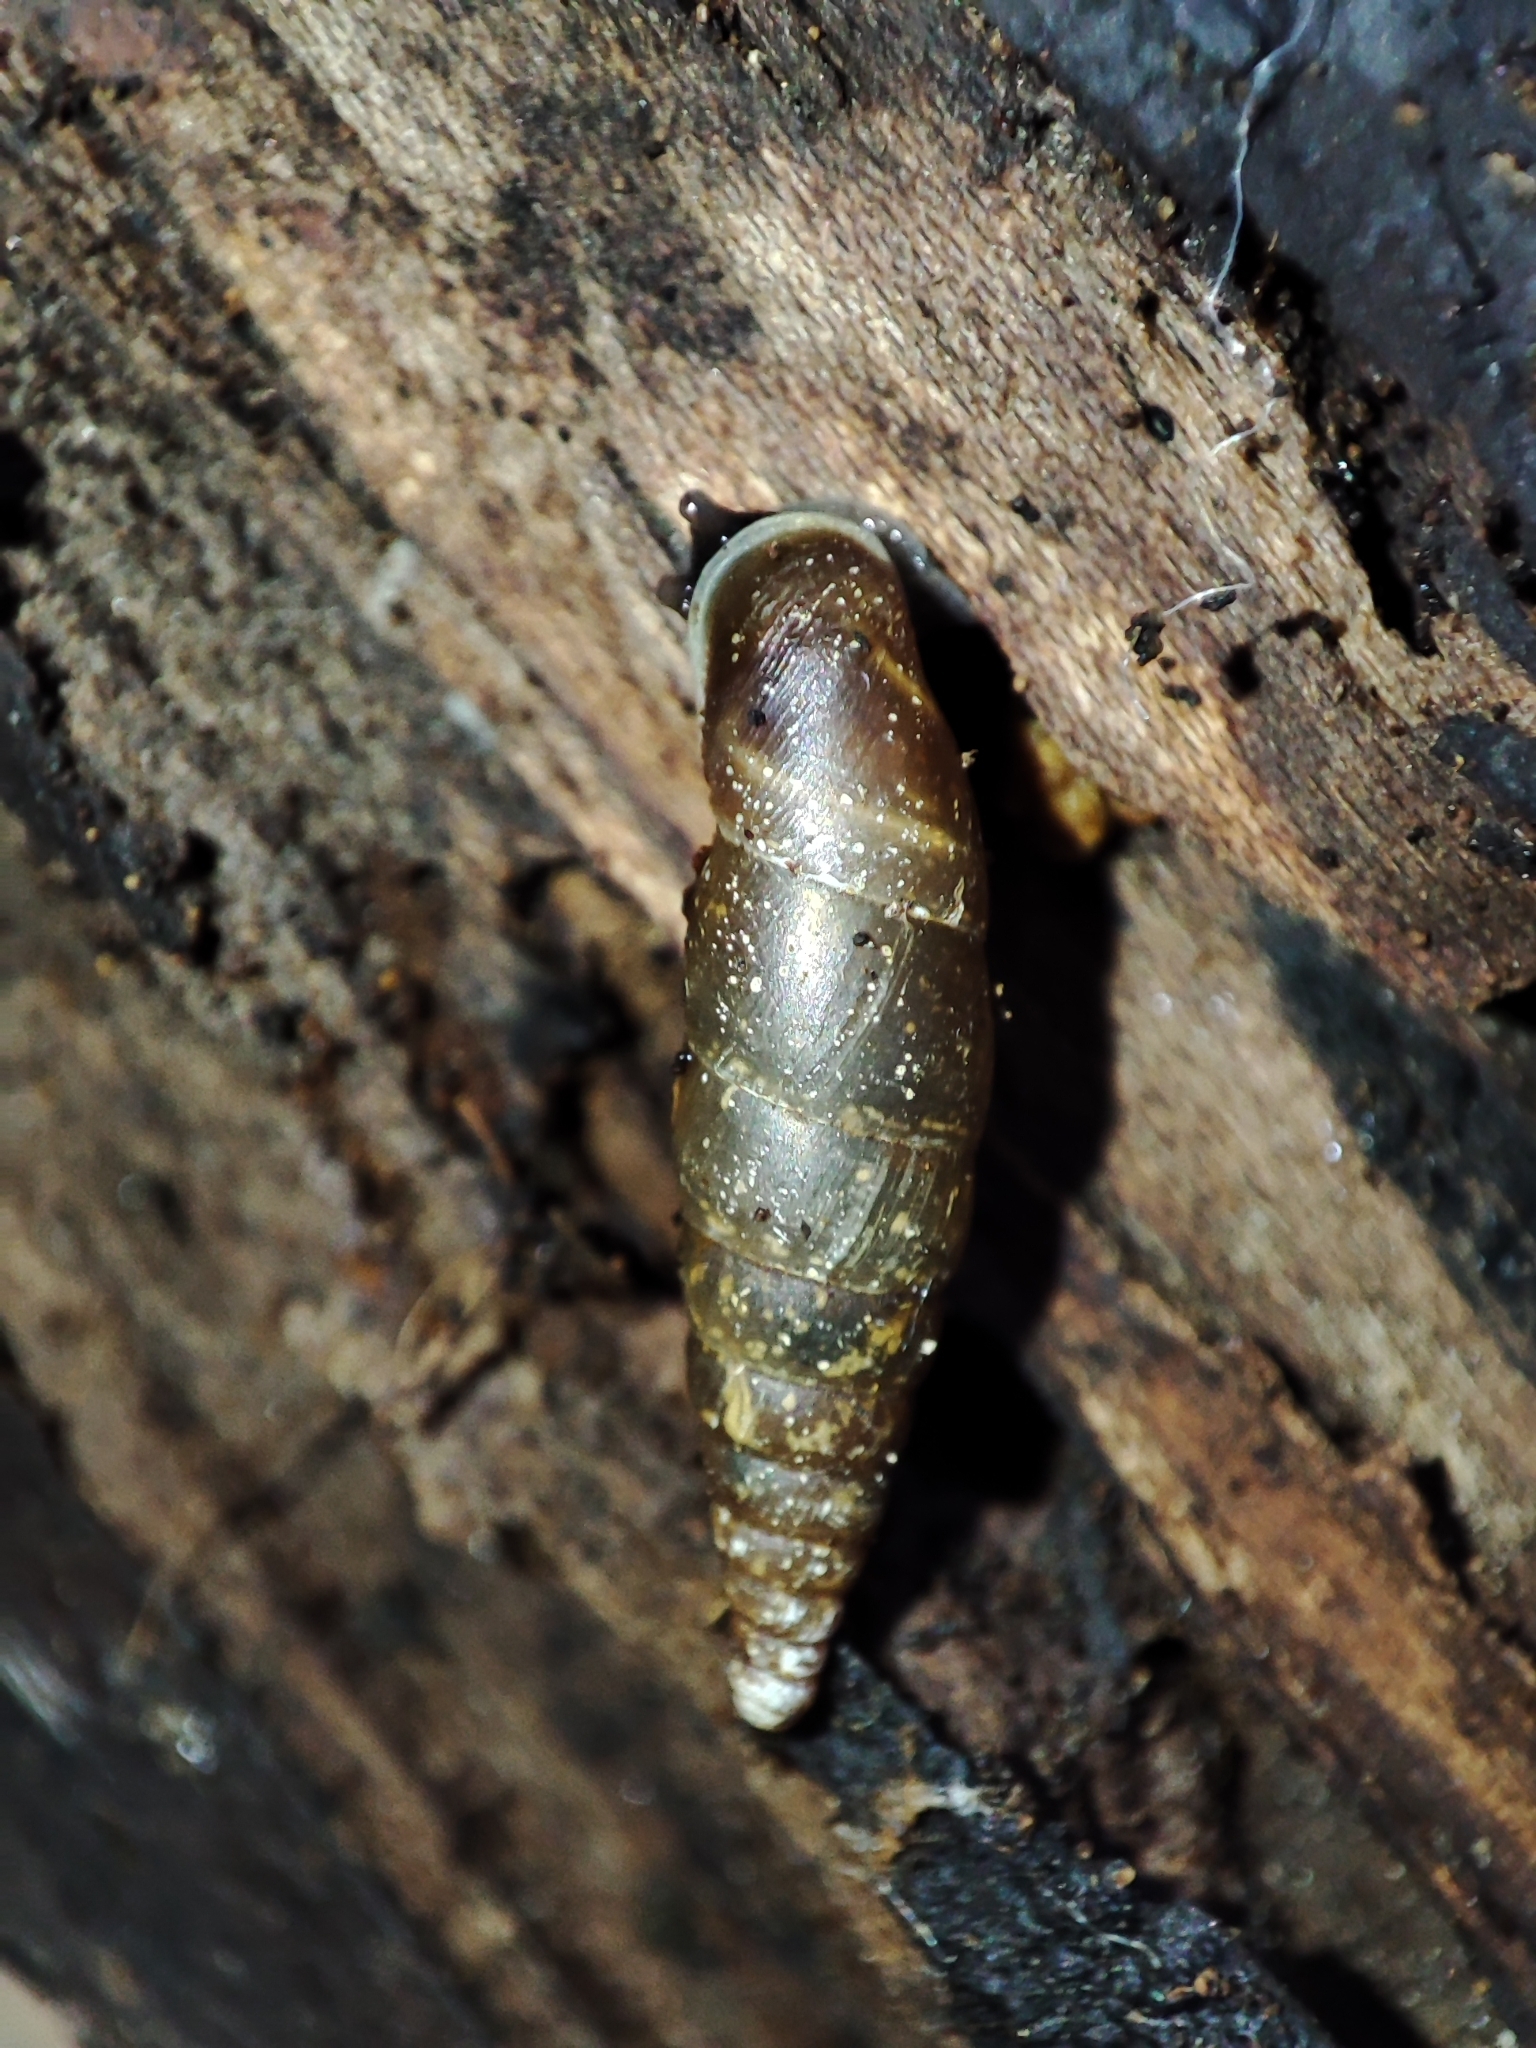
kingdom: Animalia
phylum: Mollusca
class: Gastropoda
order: Stylommatophora
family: Clausiliidae
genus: Cochlodina
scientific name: Cochlodina laminata
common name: Plaited door snail
